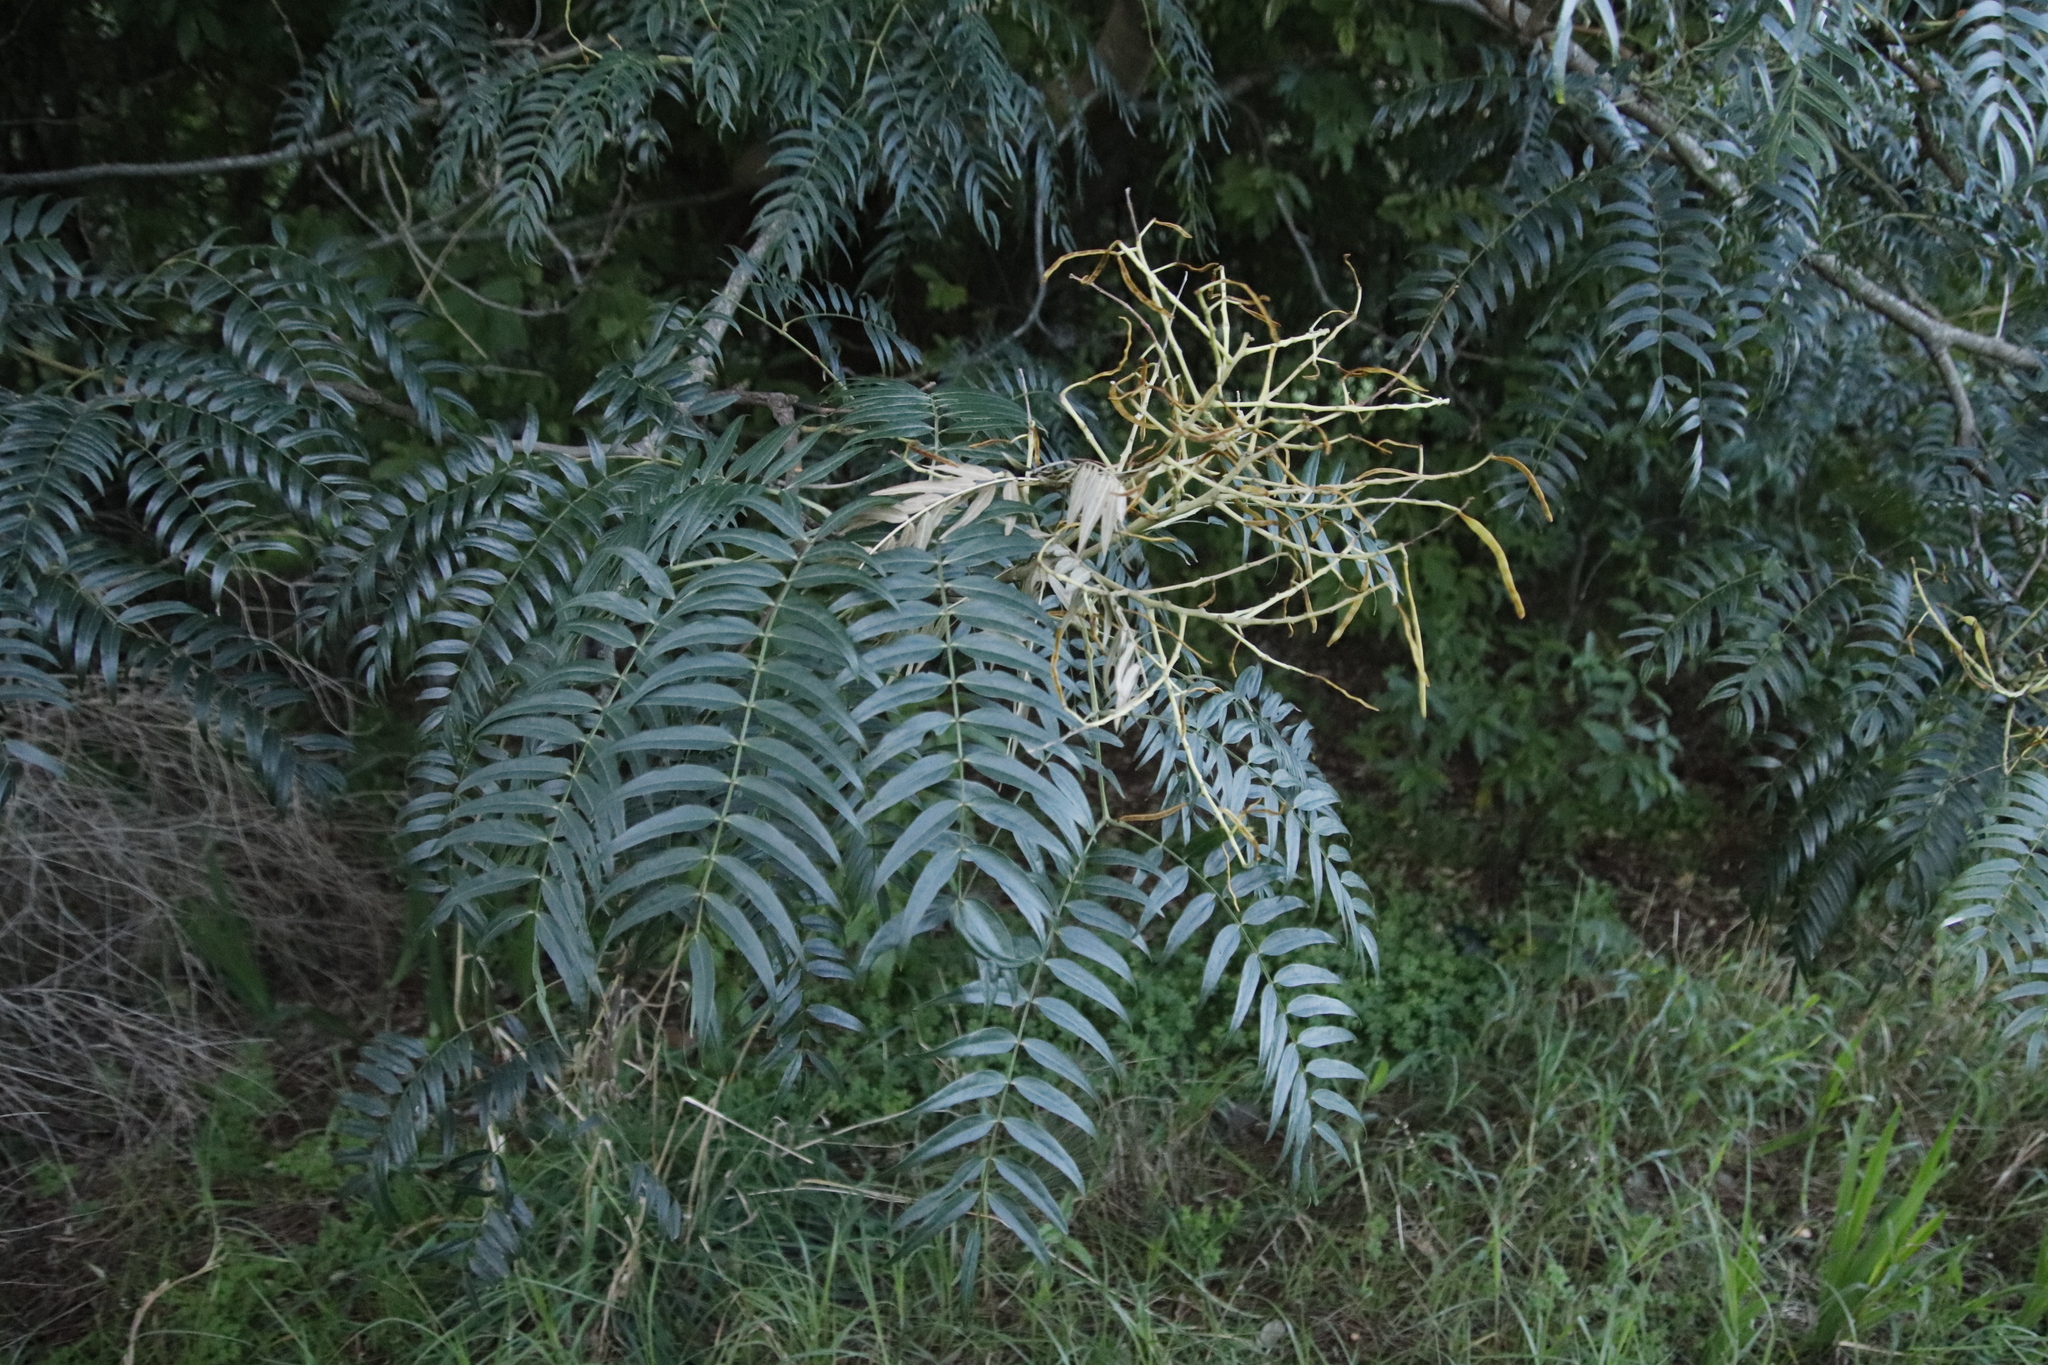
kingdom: Plantae
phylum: Tracheophyta
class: Magnoliopsida
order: Fabales
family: Fabaceae
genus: Acacia
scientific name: Acacia elata
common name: Cedar wattle
